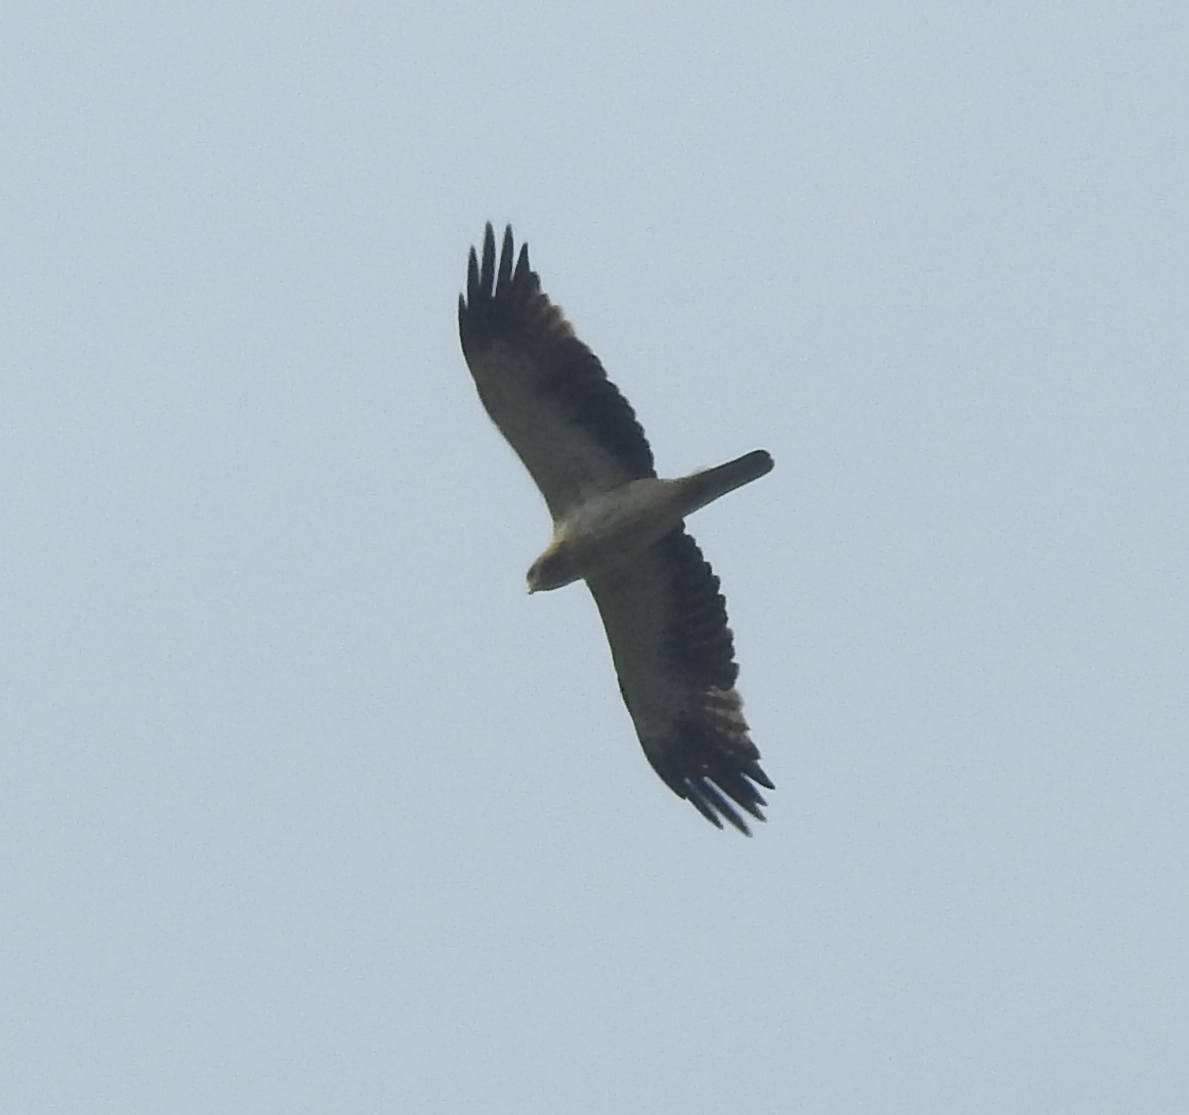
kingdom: Animalia
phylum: Chordata
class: Aves
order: Accipitriformes
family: Accipitridae
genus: Hieraaetus
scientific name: Hieraaetus pennatus
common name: Booted eagle
